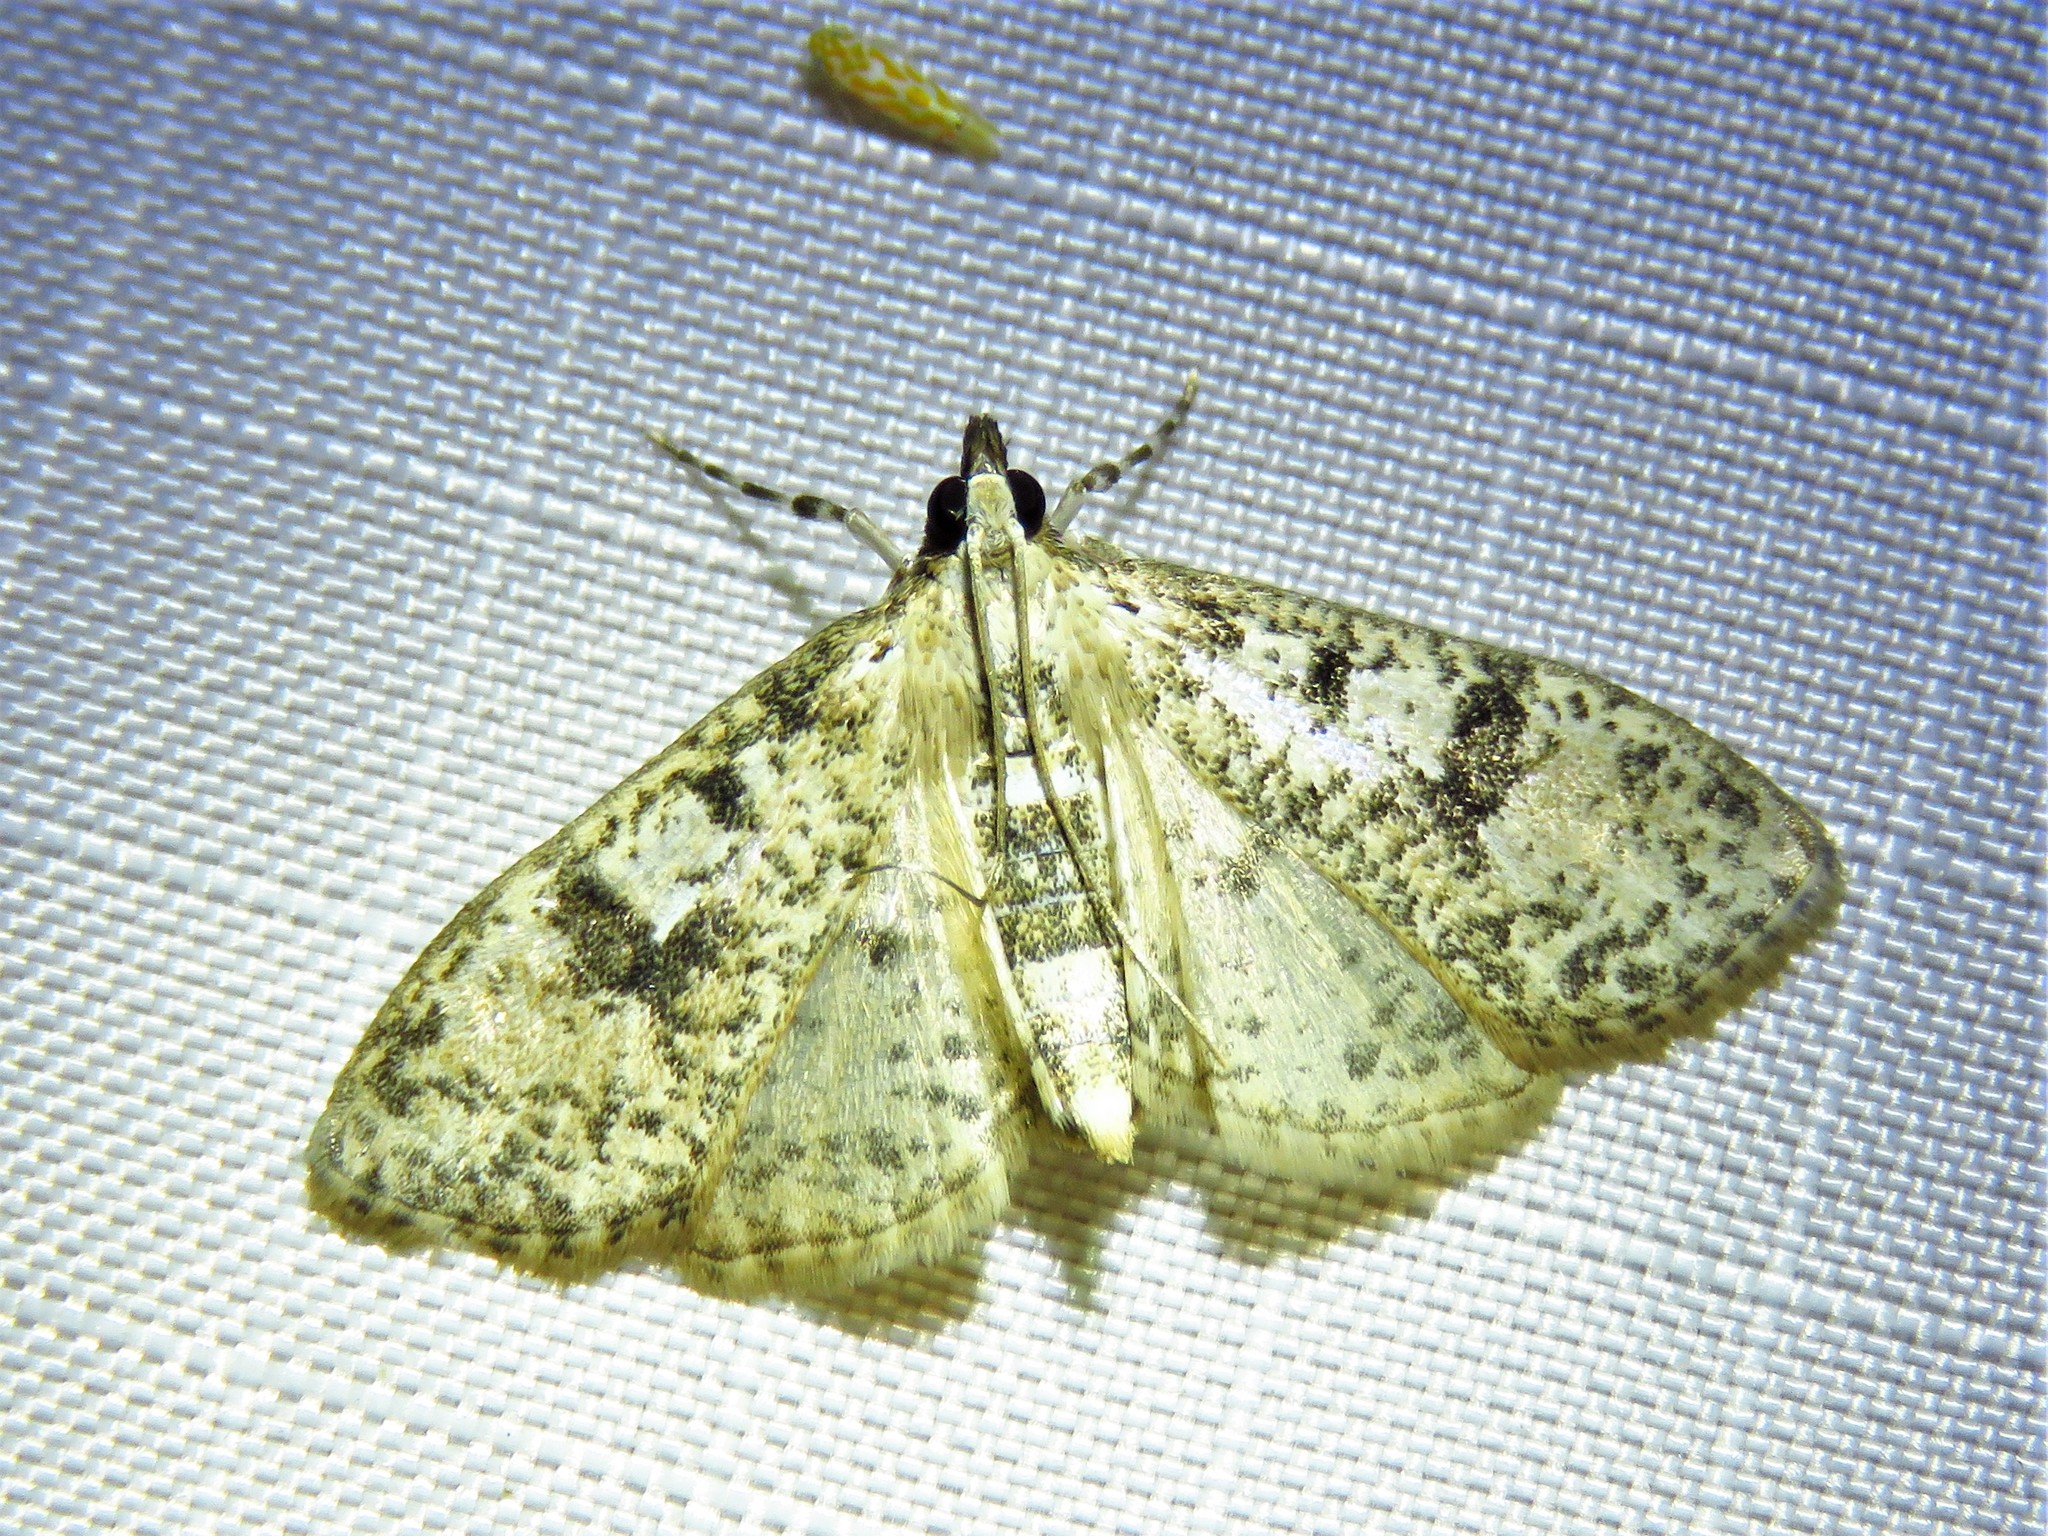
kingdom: Animalia
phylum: Arthropoda
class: Insecta
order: Lepidoptera
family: Crambidae
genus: Palpita
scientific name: Palpita magniferalis
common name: Splendid palpita moth
